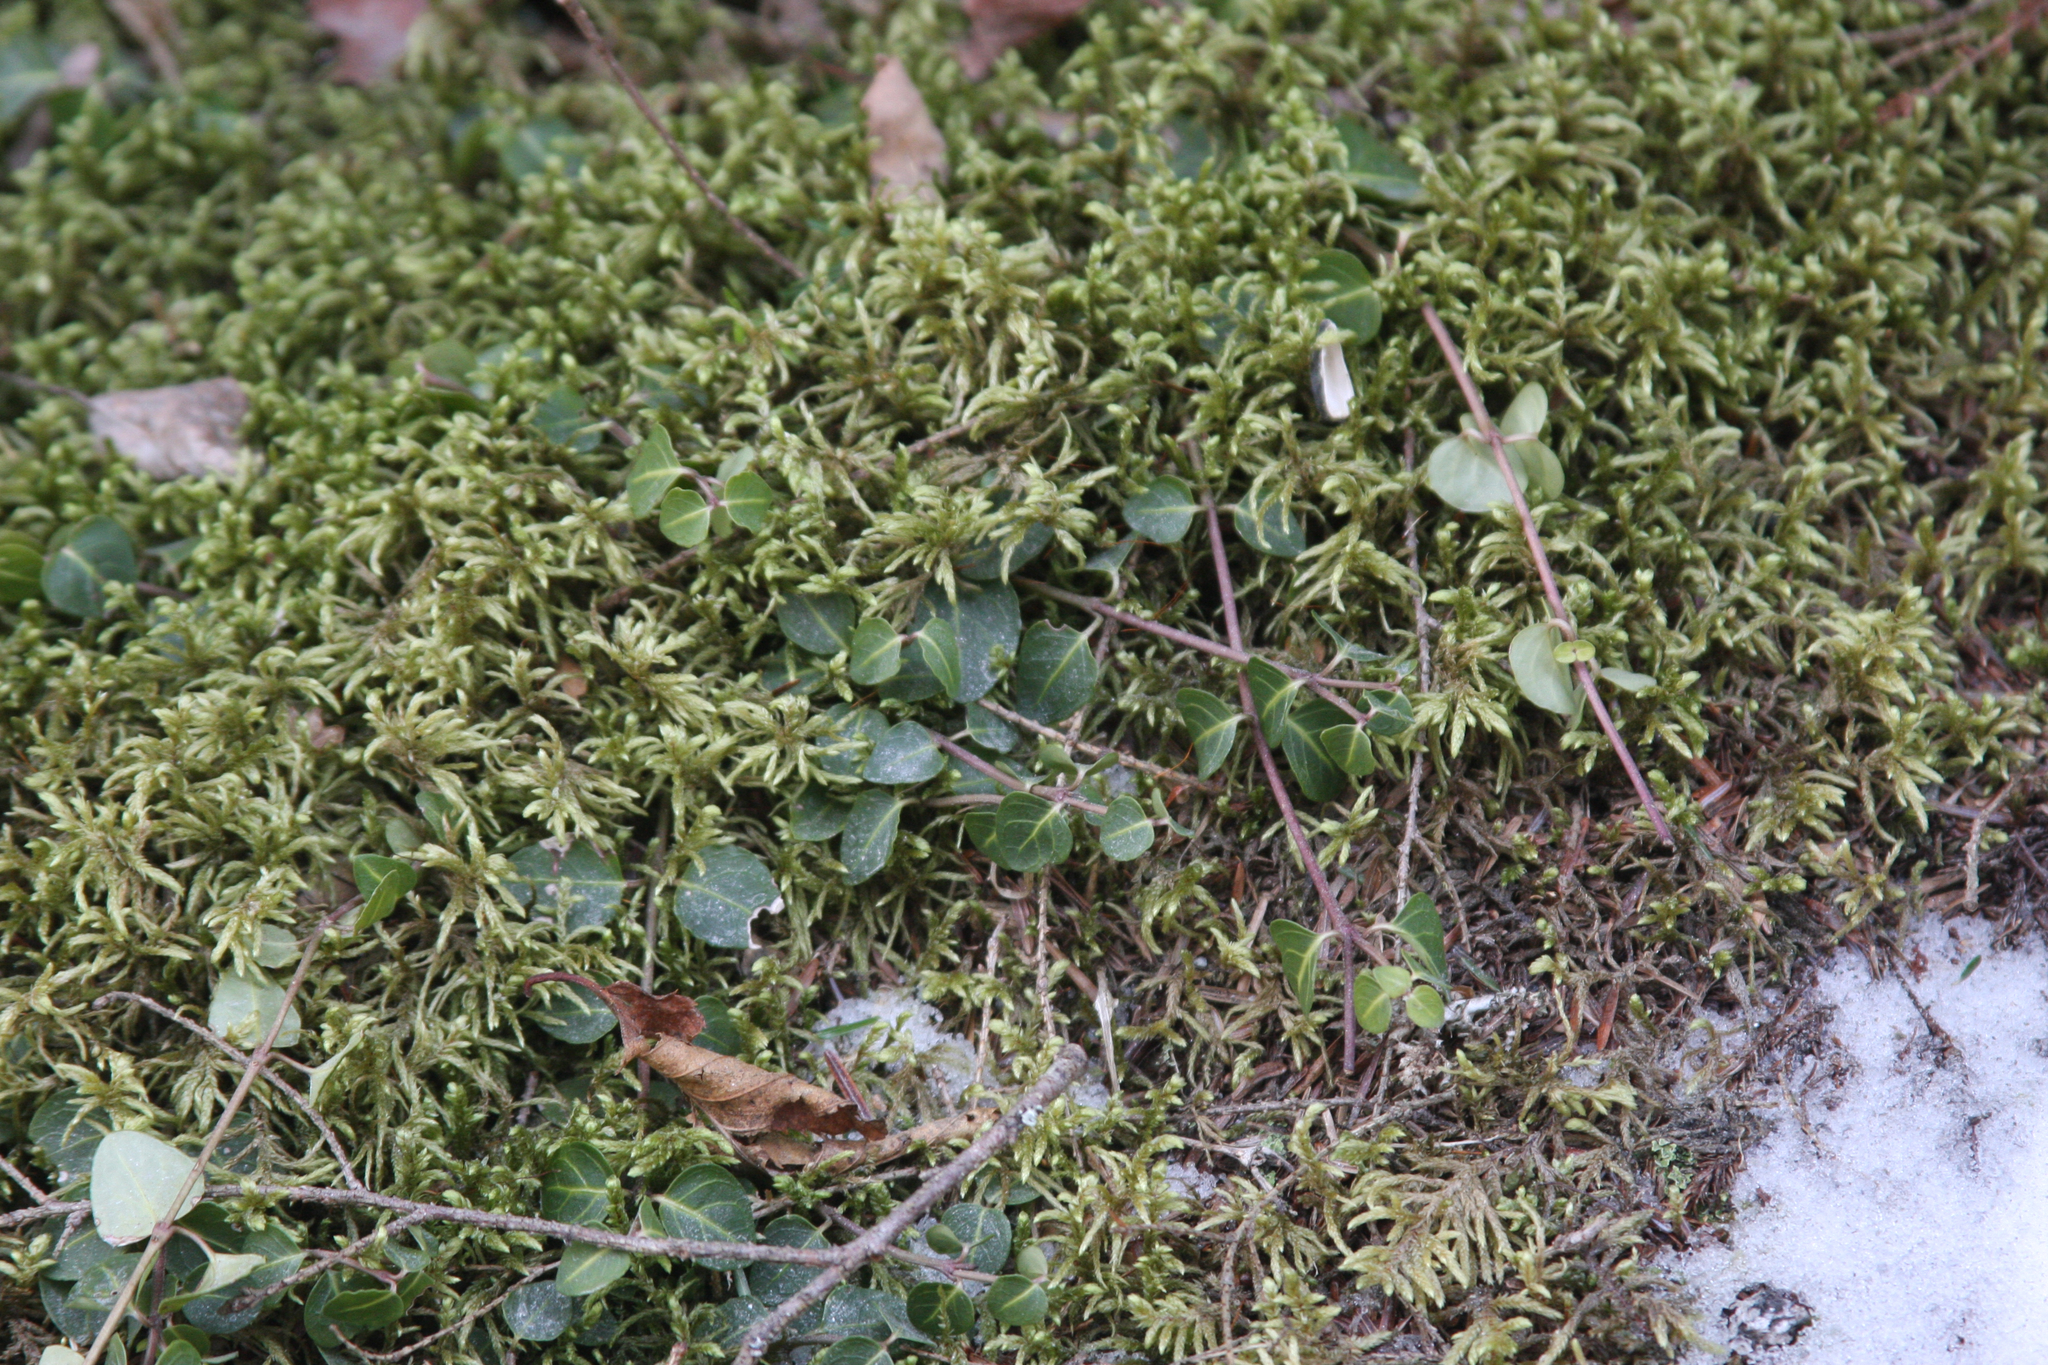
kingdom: Plantae
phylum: Tracheophyta
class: Magnoliopsida
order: Gentianales
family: Rubiaceae
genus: Mitchella
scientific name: Mitchella repens
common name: Partridge-berry
